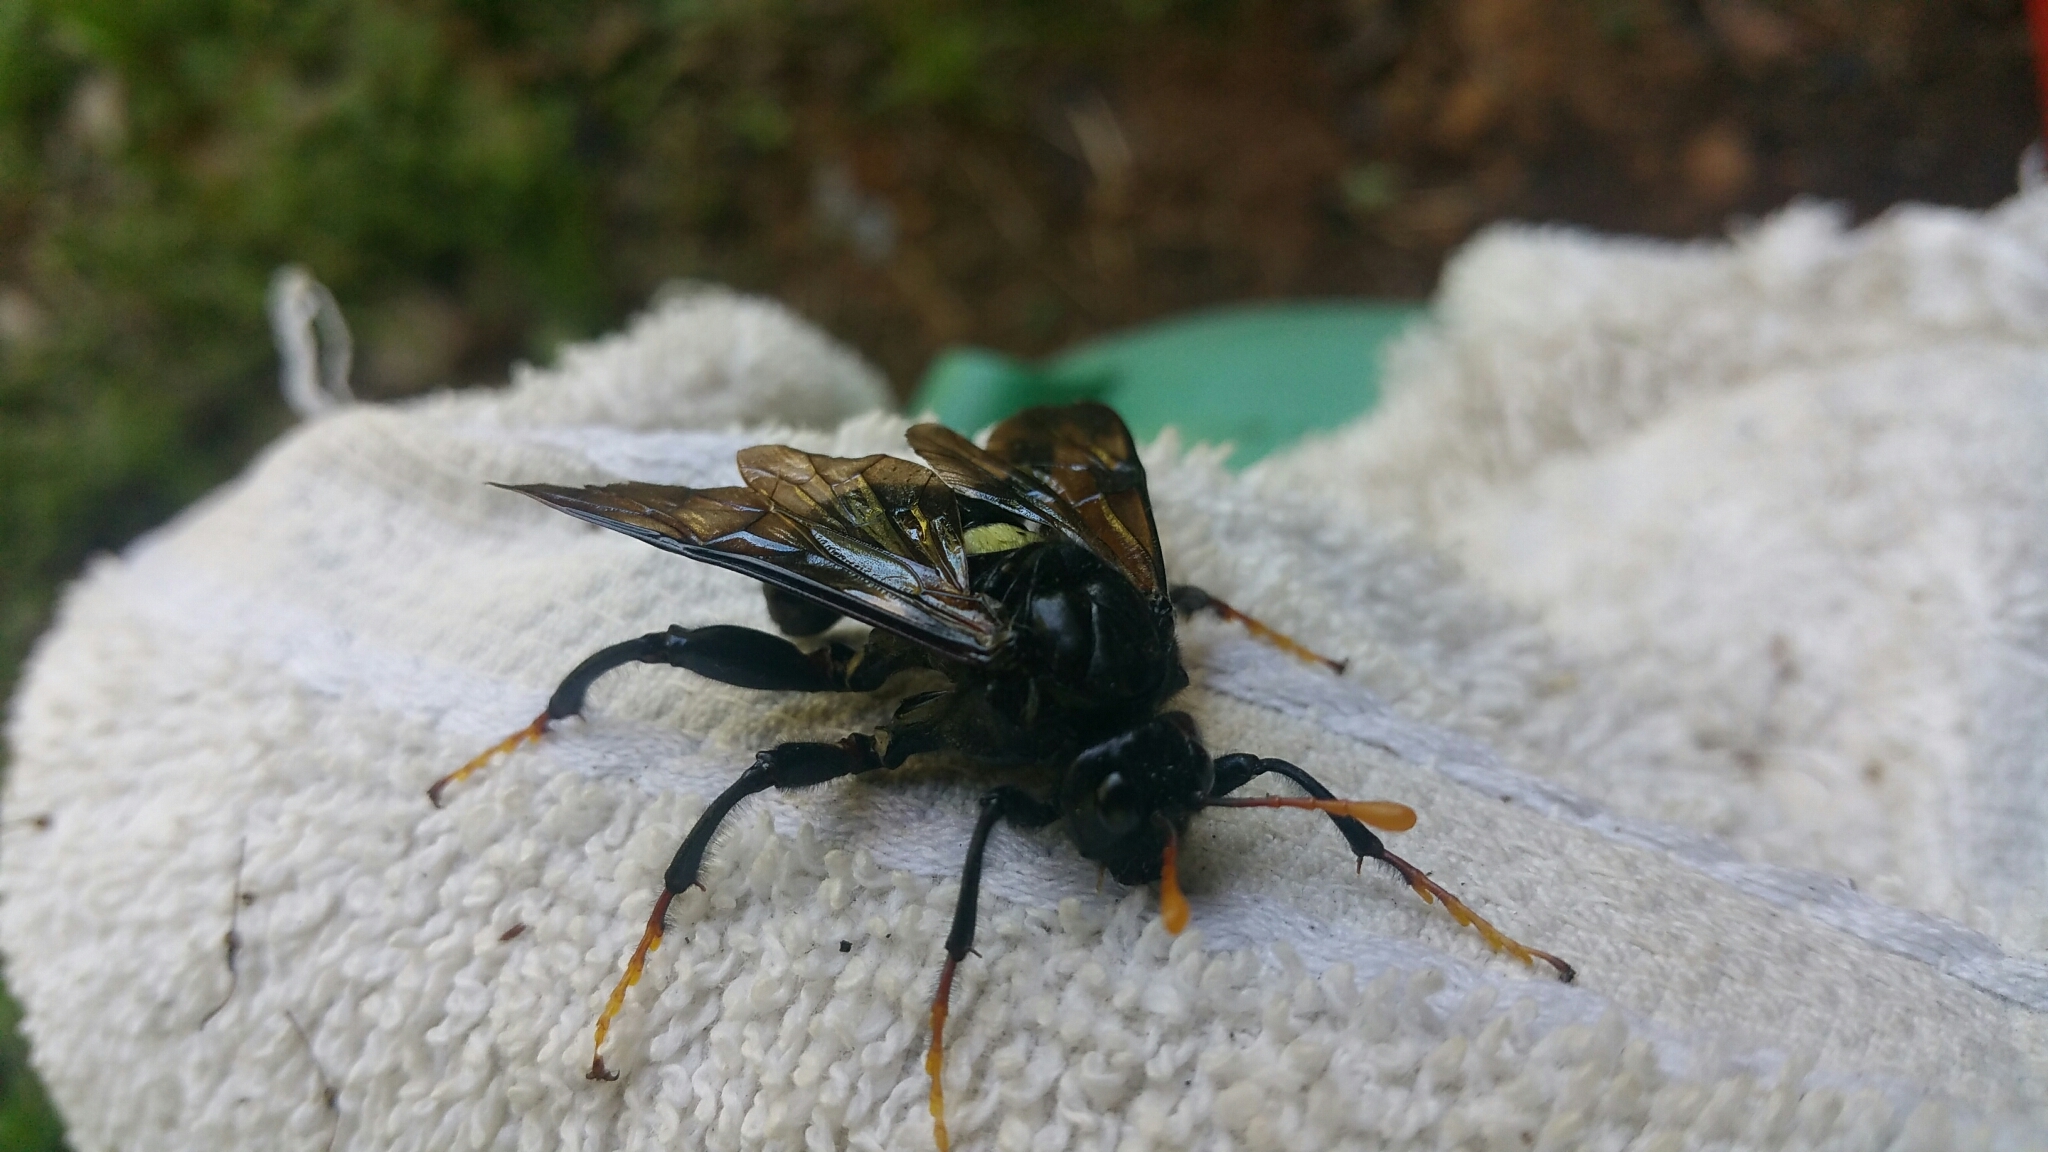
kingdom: Animalia
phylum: Arthropoda
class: Insecta
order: Hymenoptera
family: Cimbicidae
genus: Cimbex
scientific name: Cimbex americana
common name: Elm sawfly
